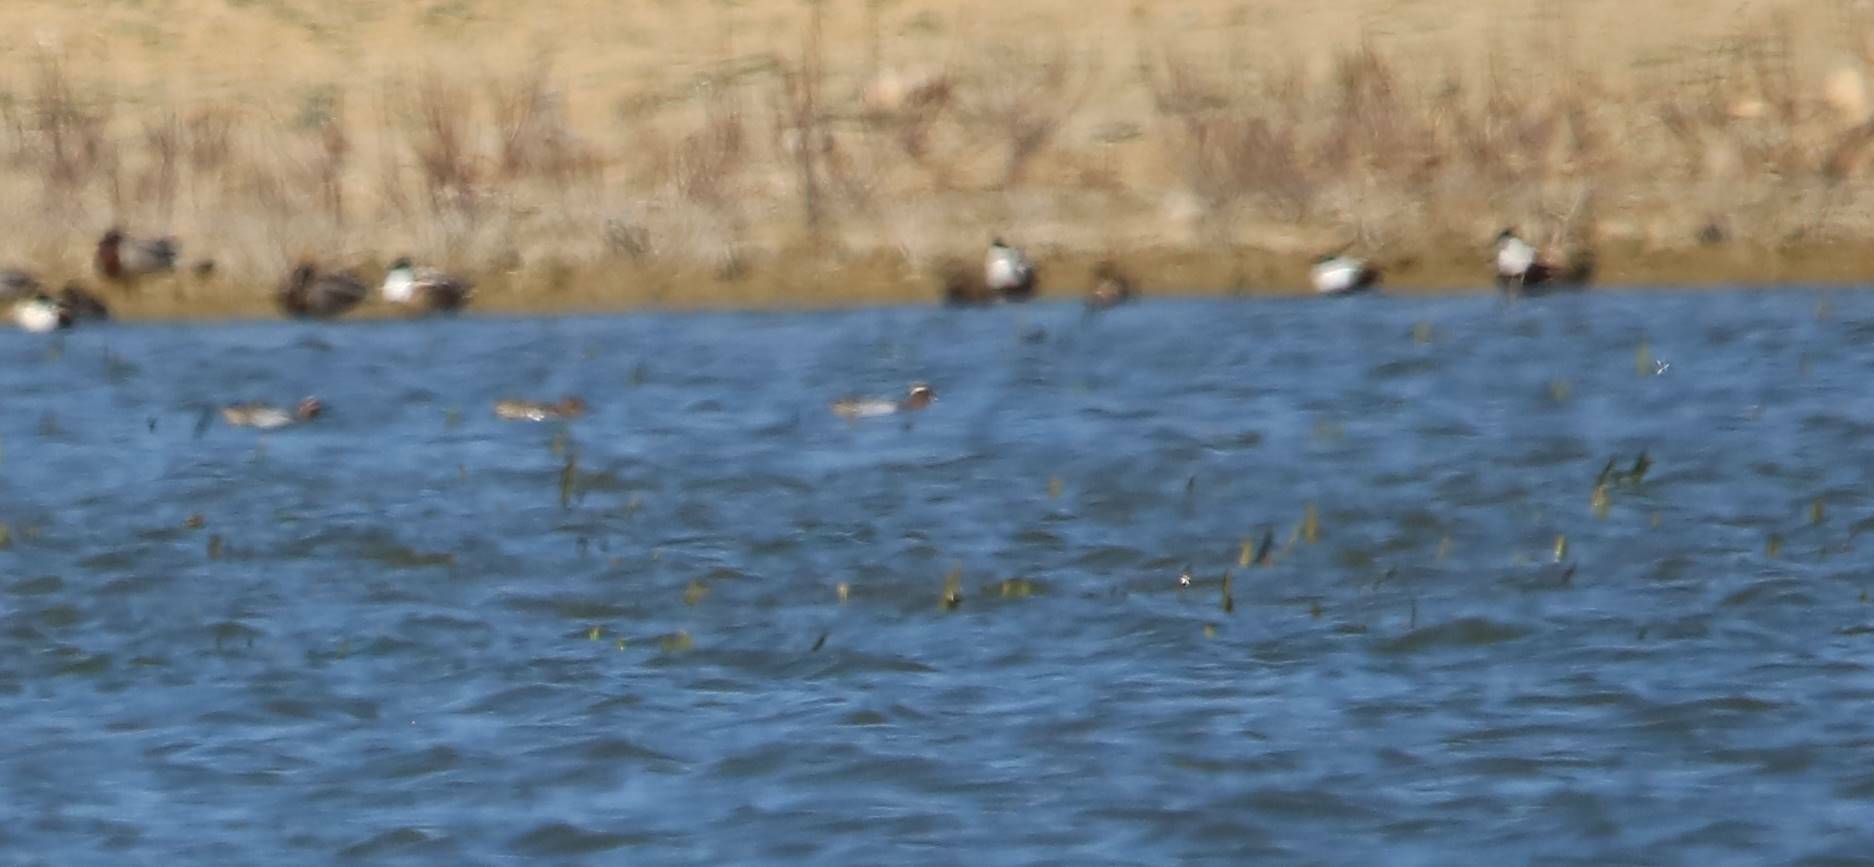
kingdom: Animalia
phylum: Chordata
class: Aves
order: Anseriformes
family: Anatidae
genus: Spatula
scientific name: Spatula querquedula
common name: Garganey
